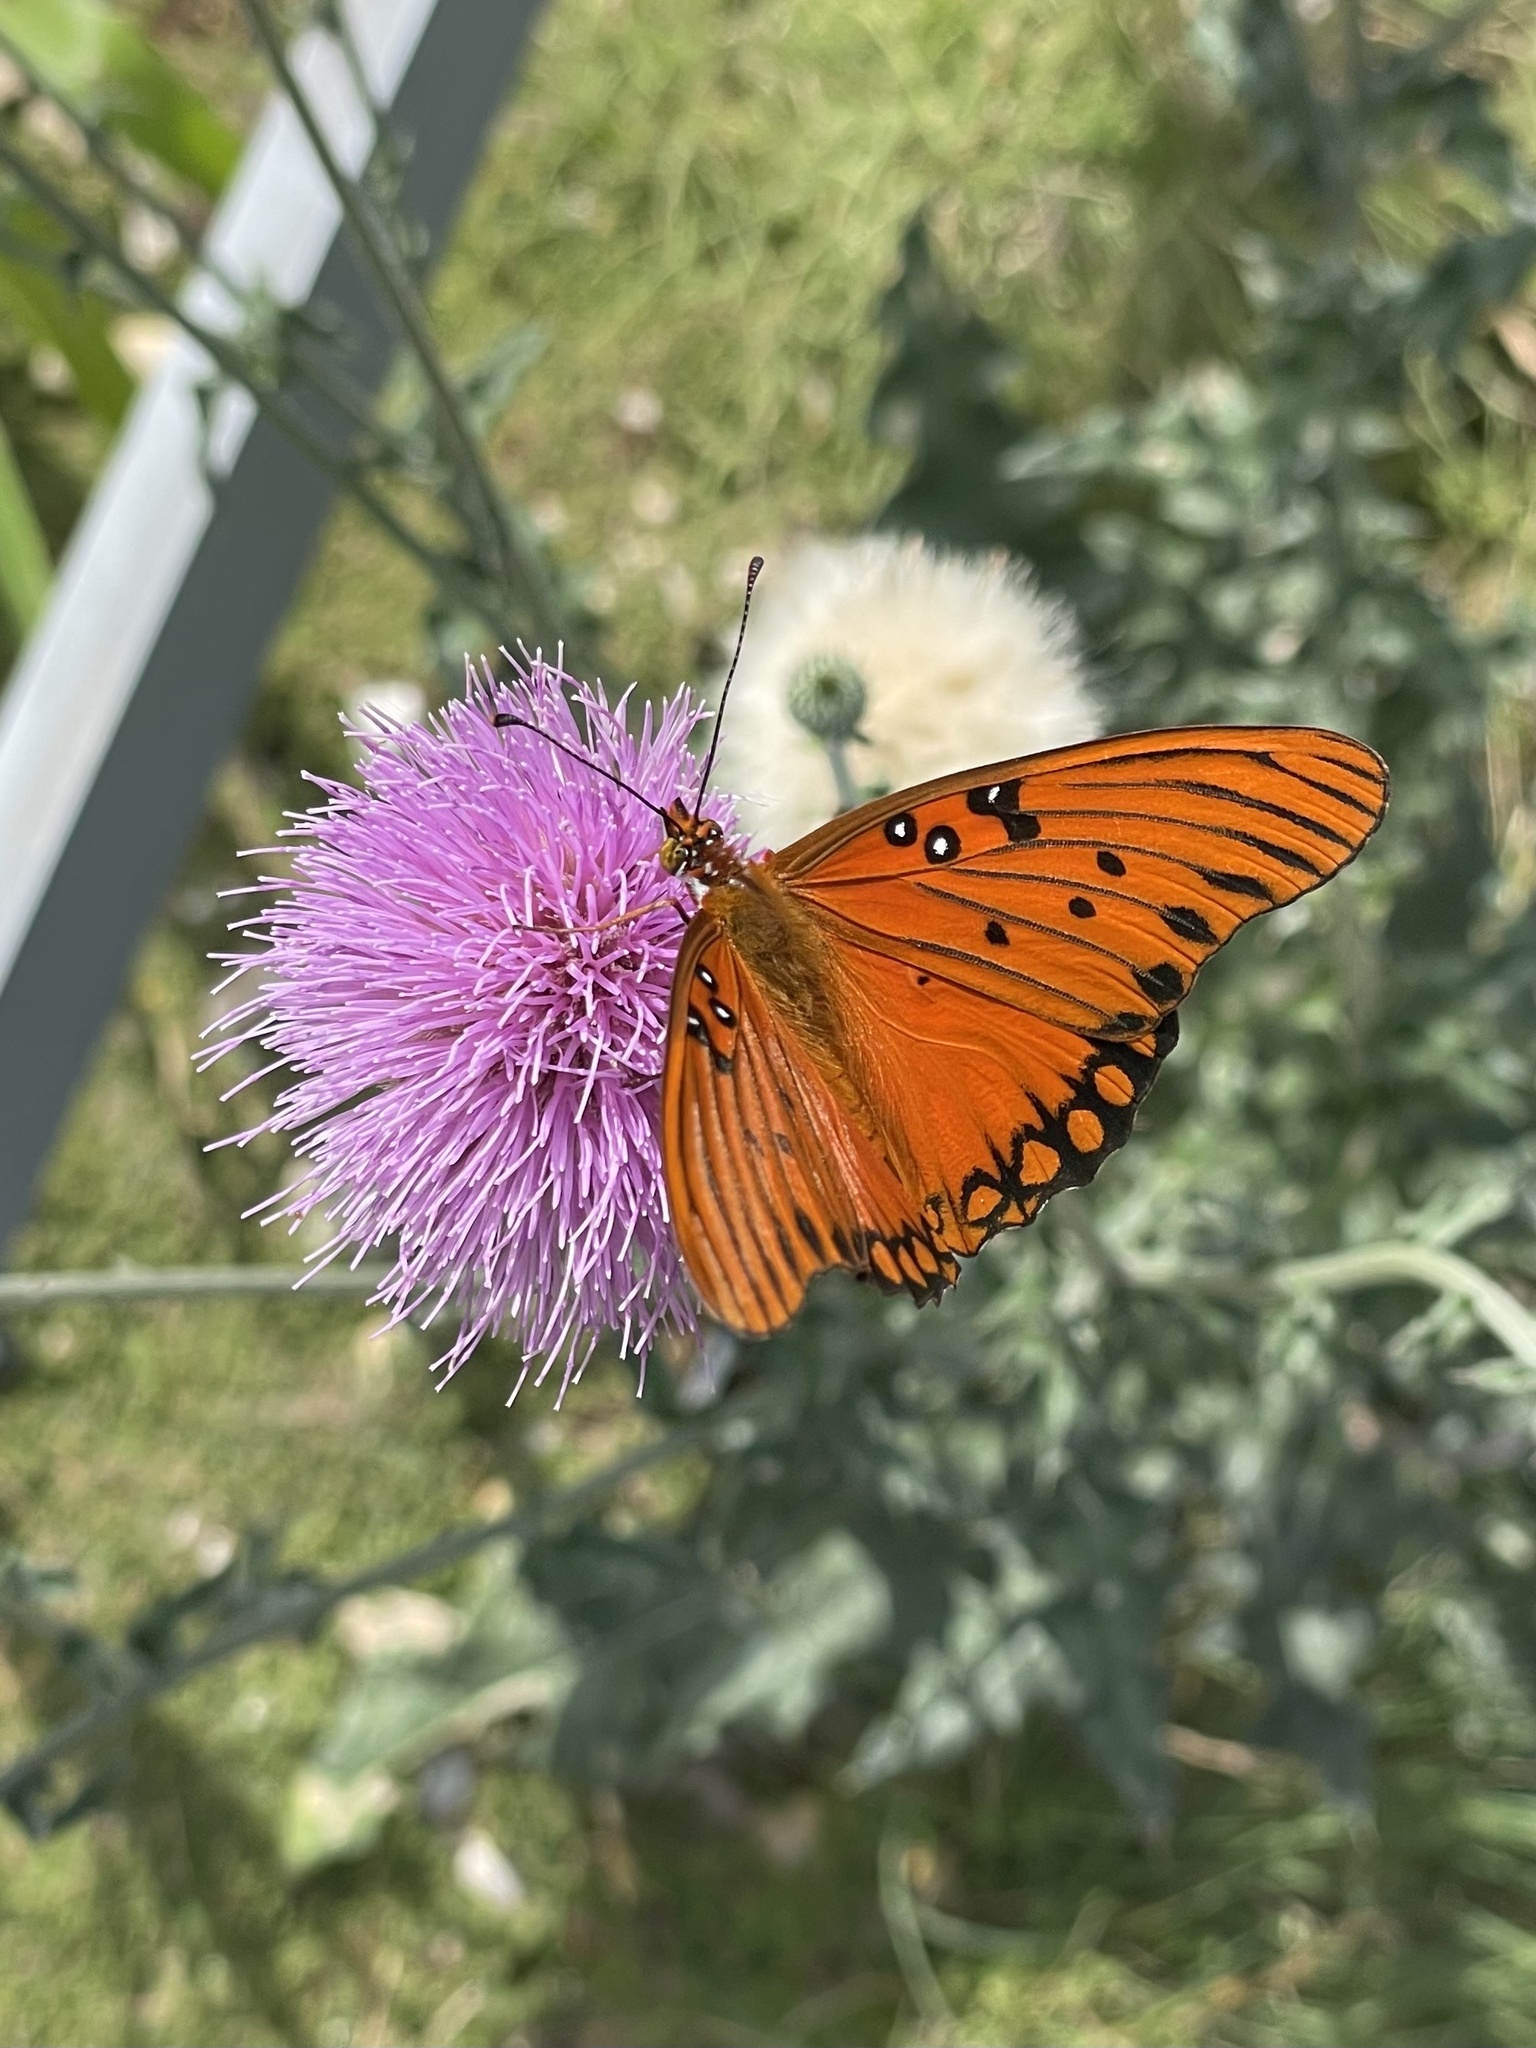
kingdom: Animalia
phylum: Arthropoda
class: Insecta
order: Lepidoptera
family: Nymphalidae
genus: Dione
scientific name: Dione vanillae
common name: Gulf fritillary
